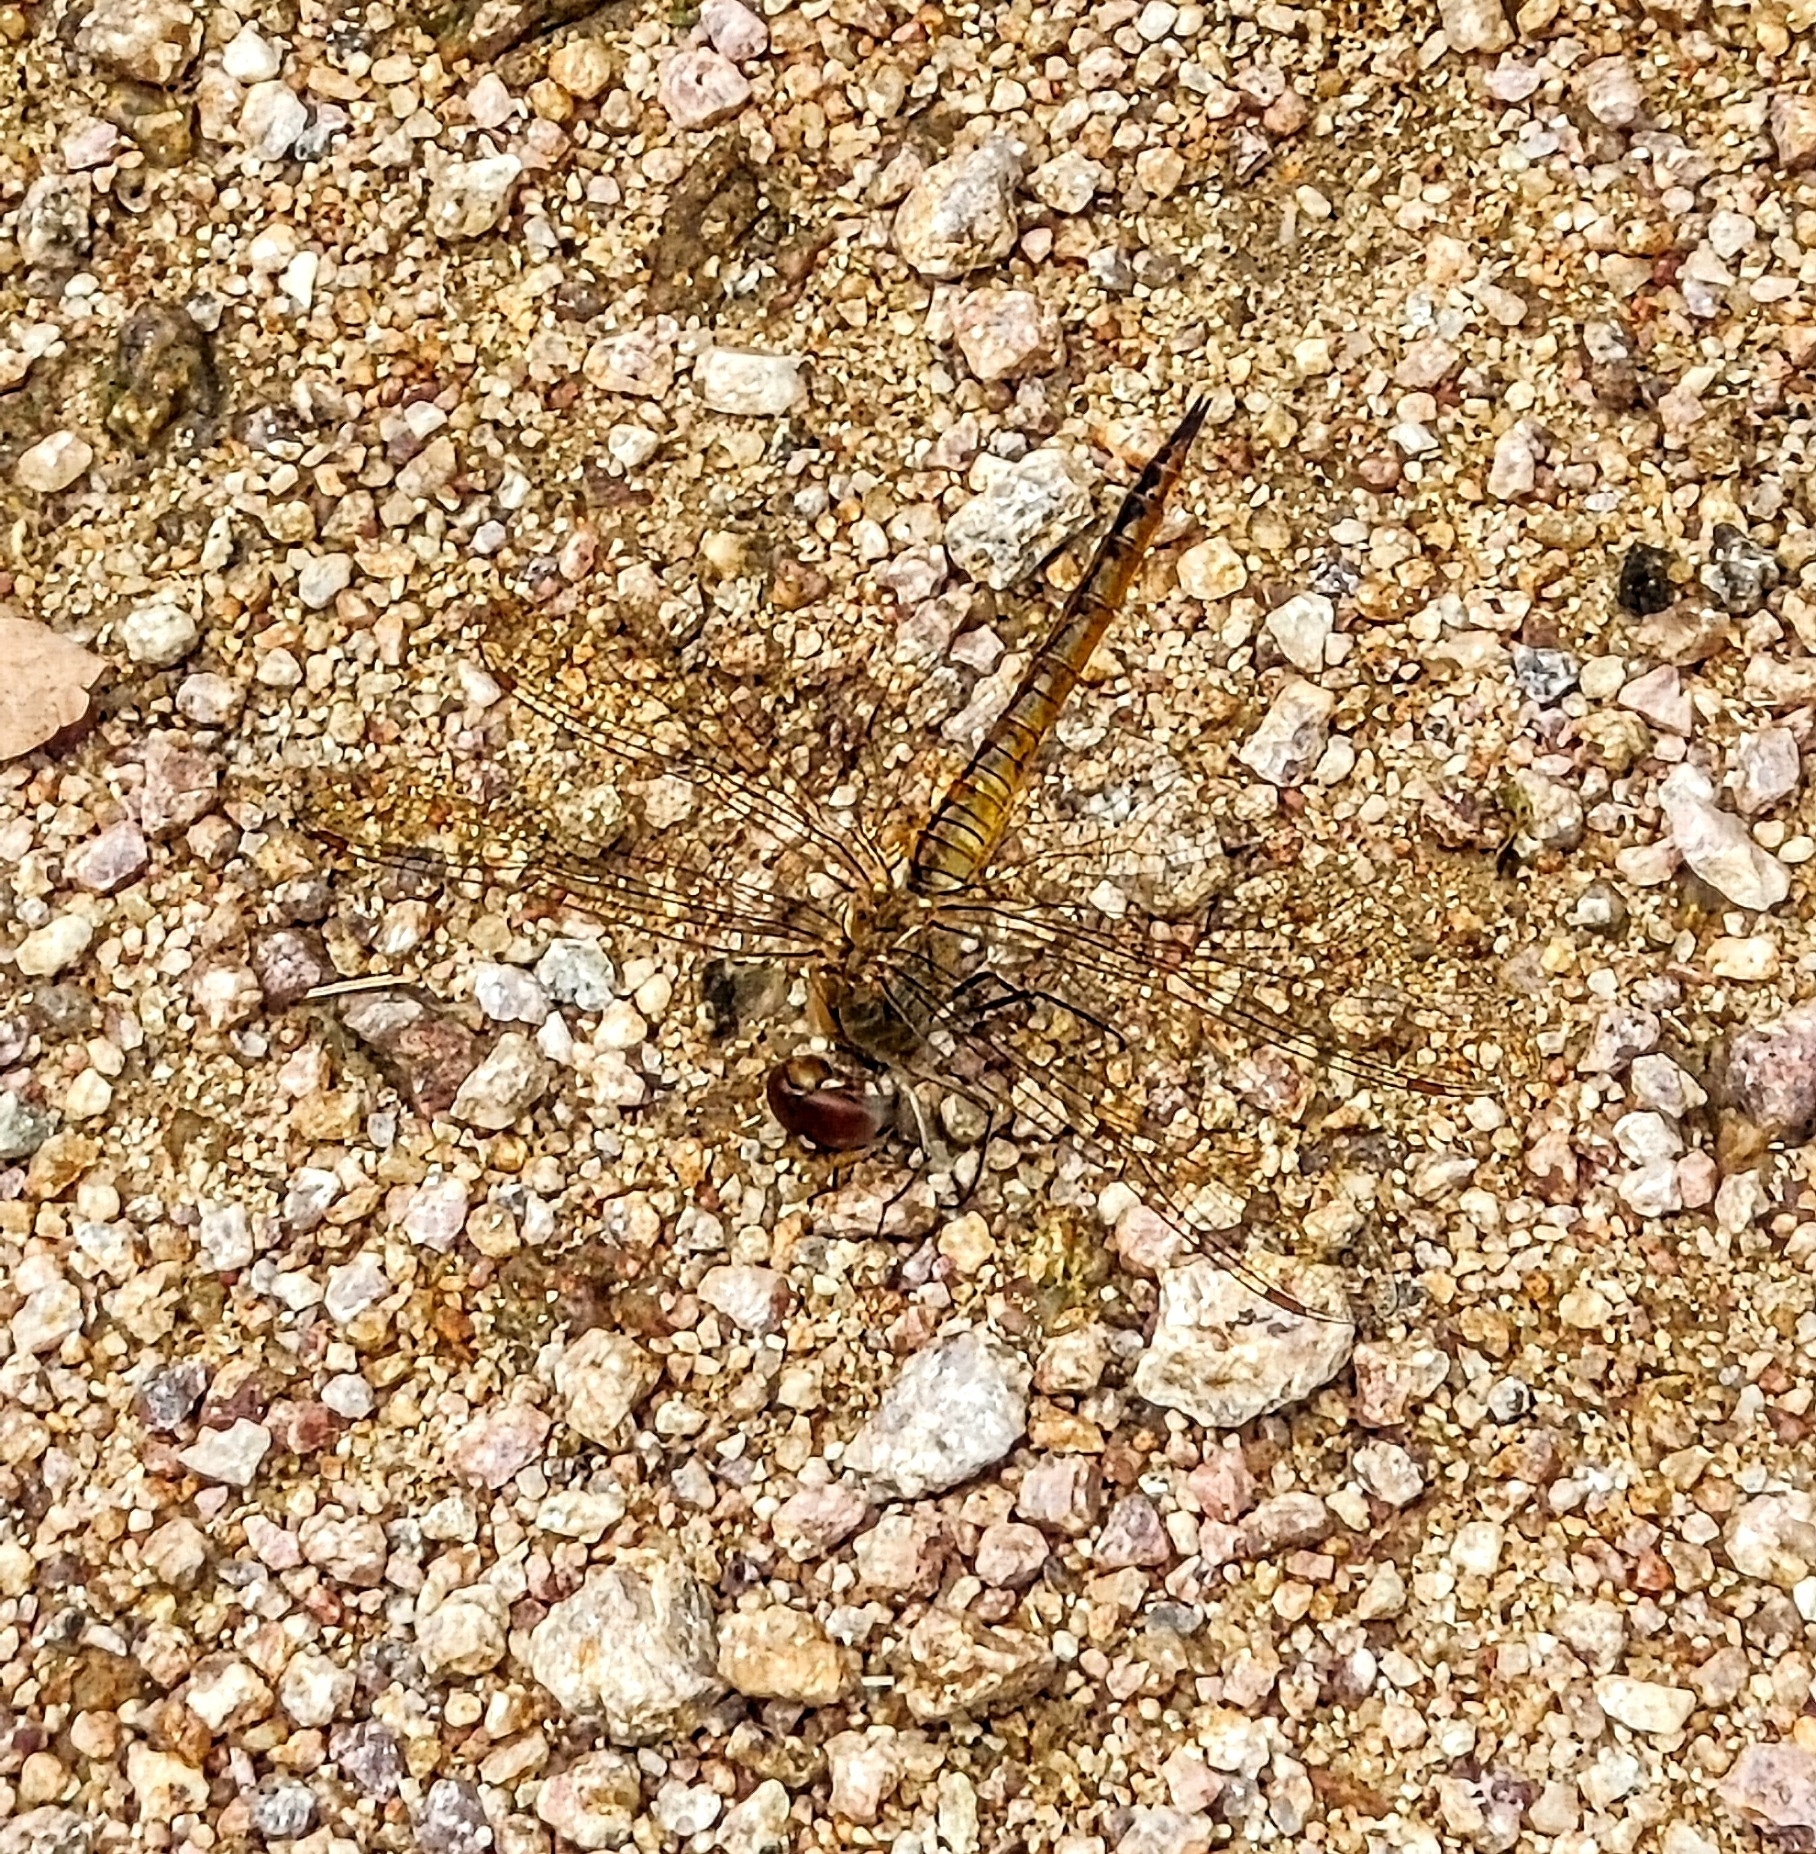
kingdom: Animalia
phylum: Arthropoda
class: Insecta
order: Odonata
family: Libellulidae
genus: Pantala
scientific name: Pantala flavescens
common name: Wandering glider
